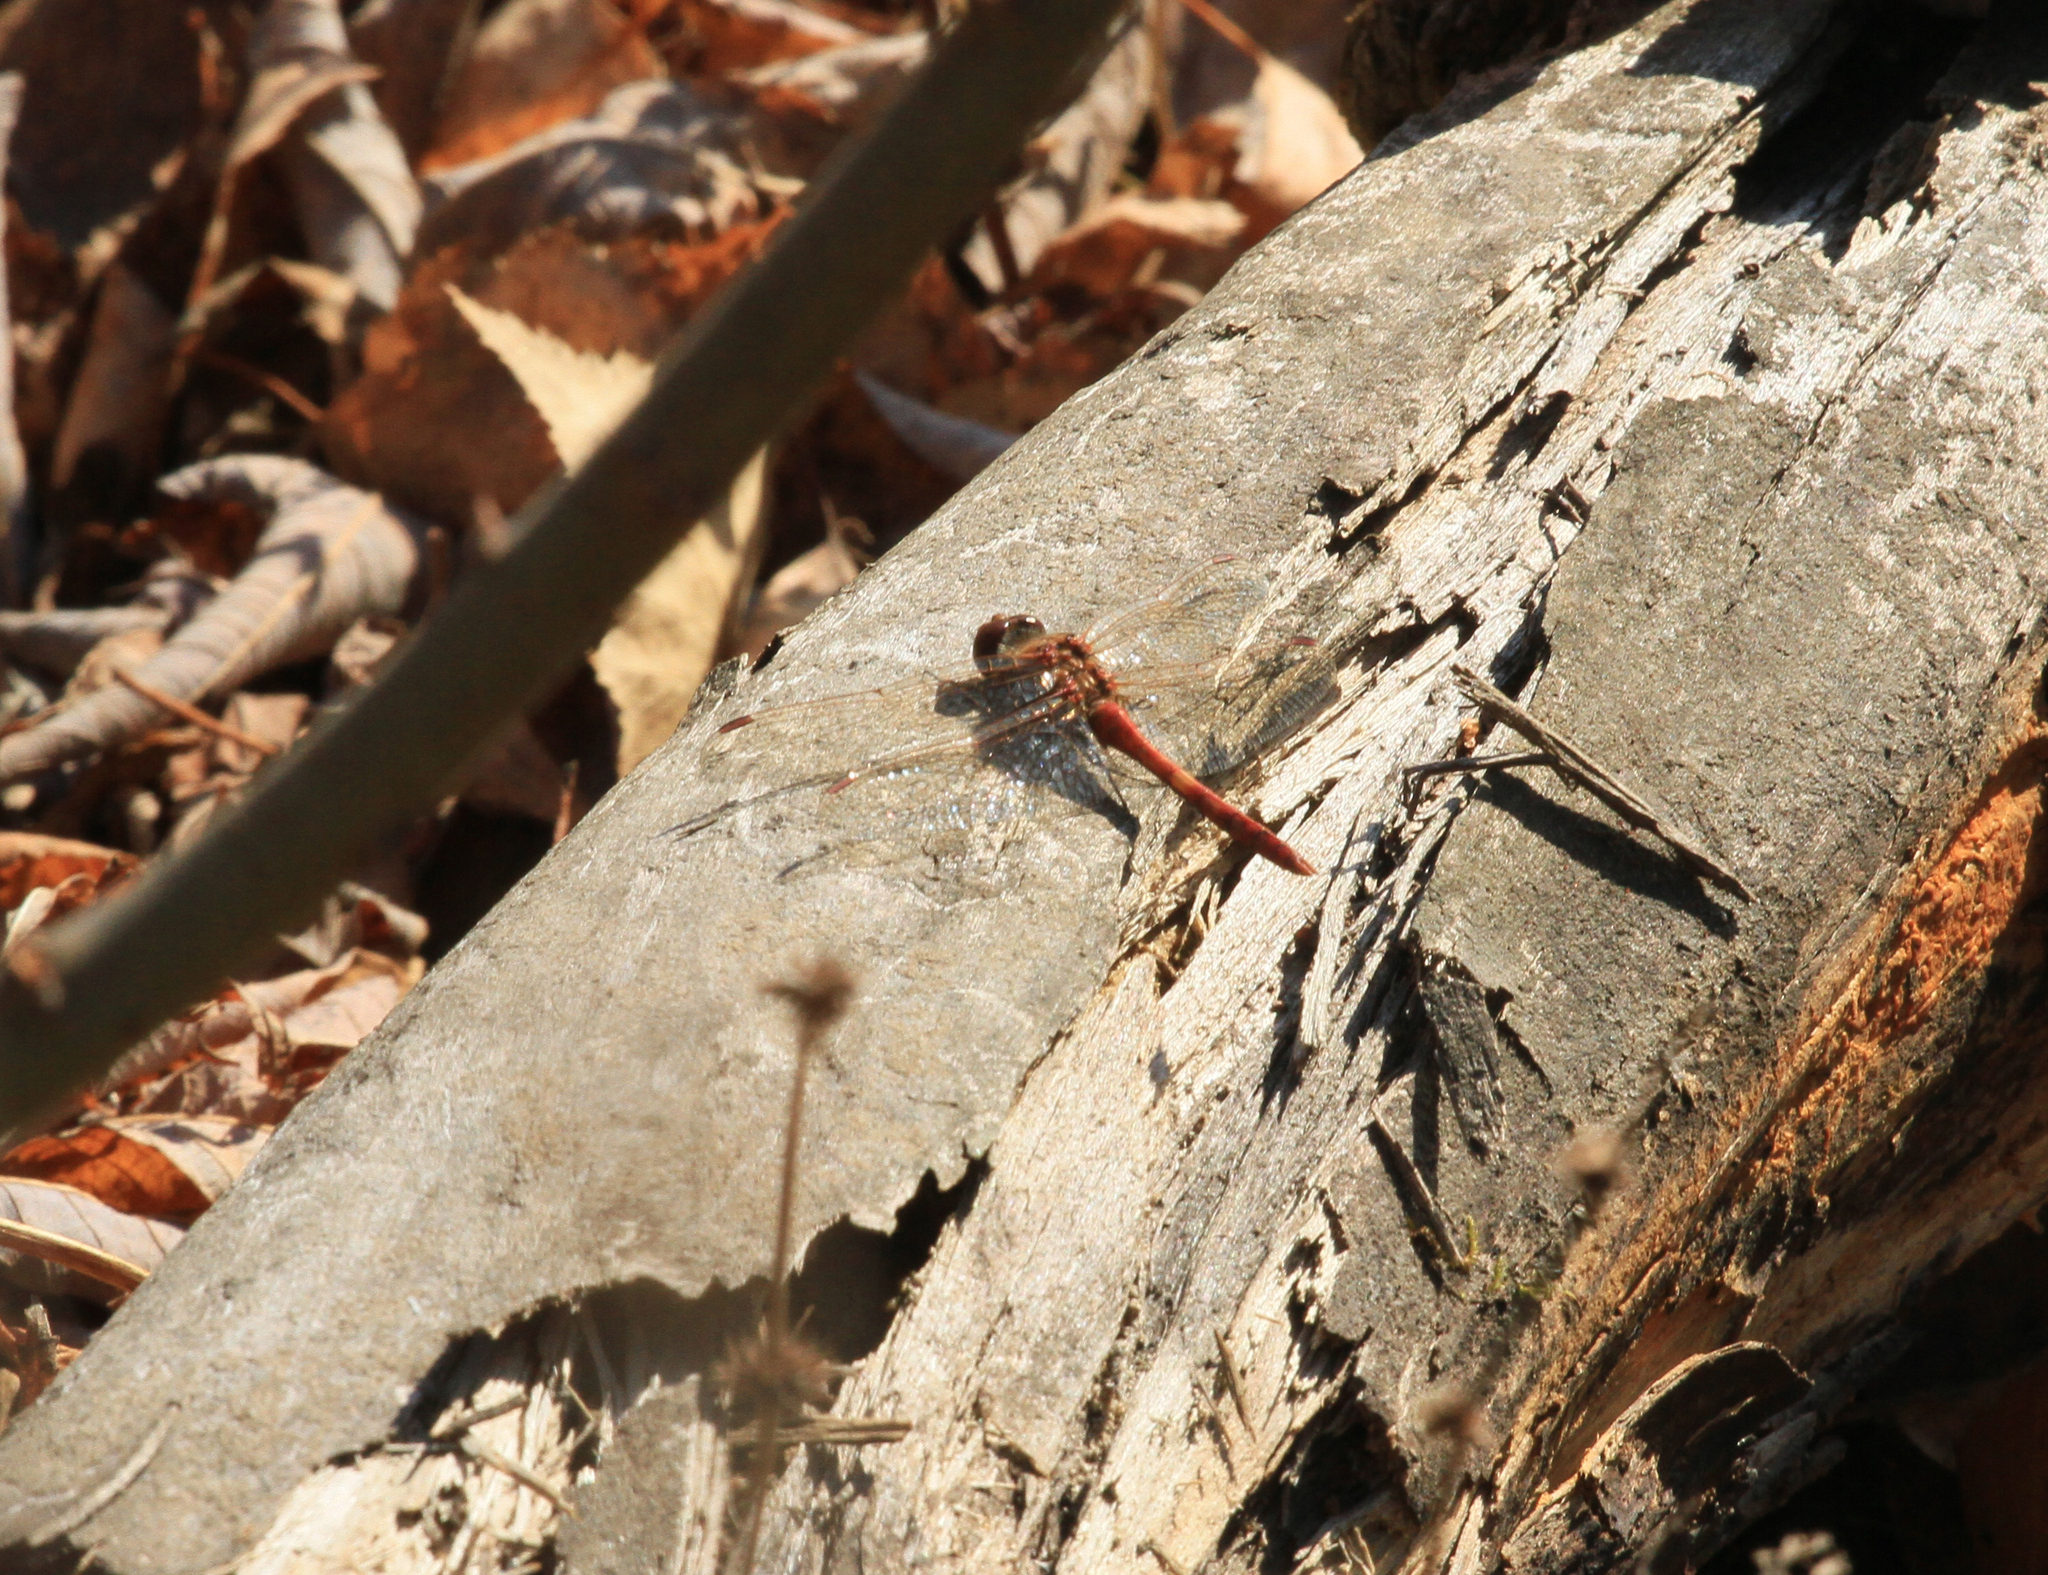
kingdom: Animalia
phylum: Arthropoda
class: Insecta
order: Odonata
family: Libellulidae
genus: Sympetrum
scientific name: Sympetrum vulgatum
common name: Vagrant darter
